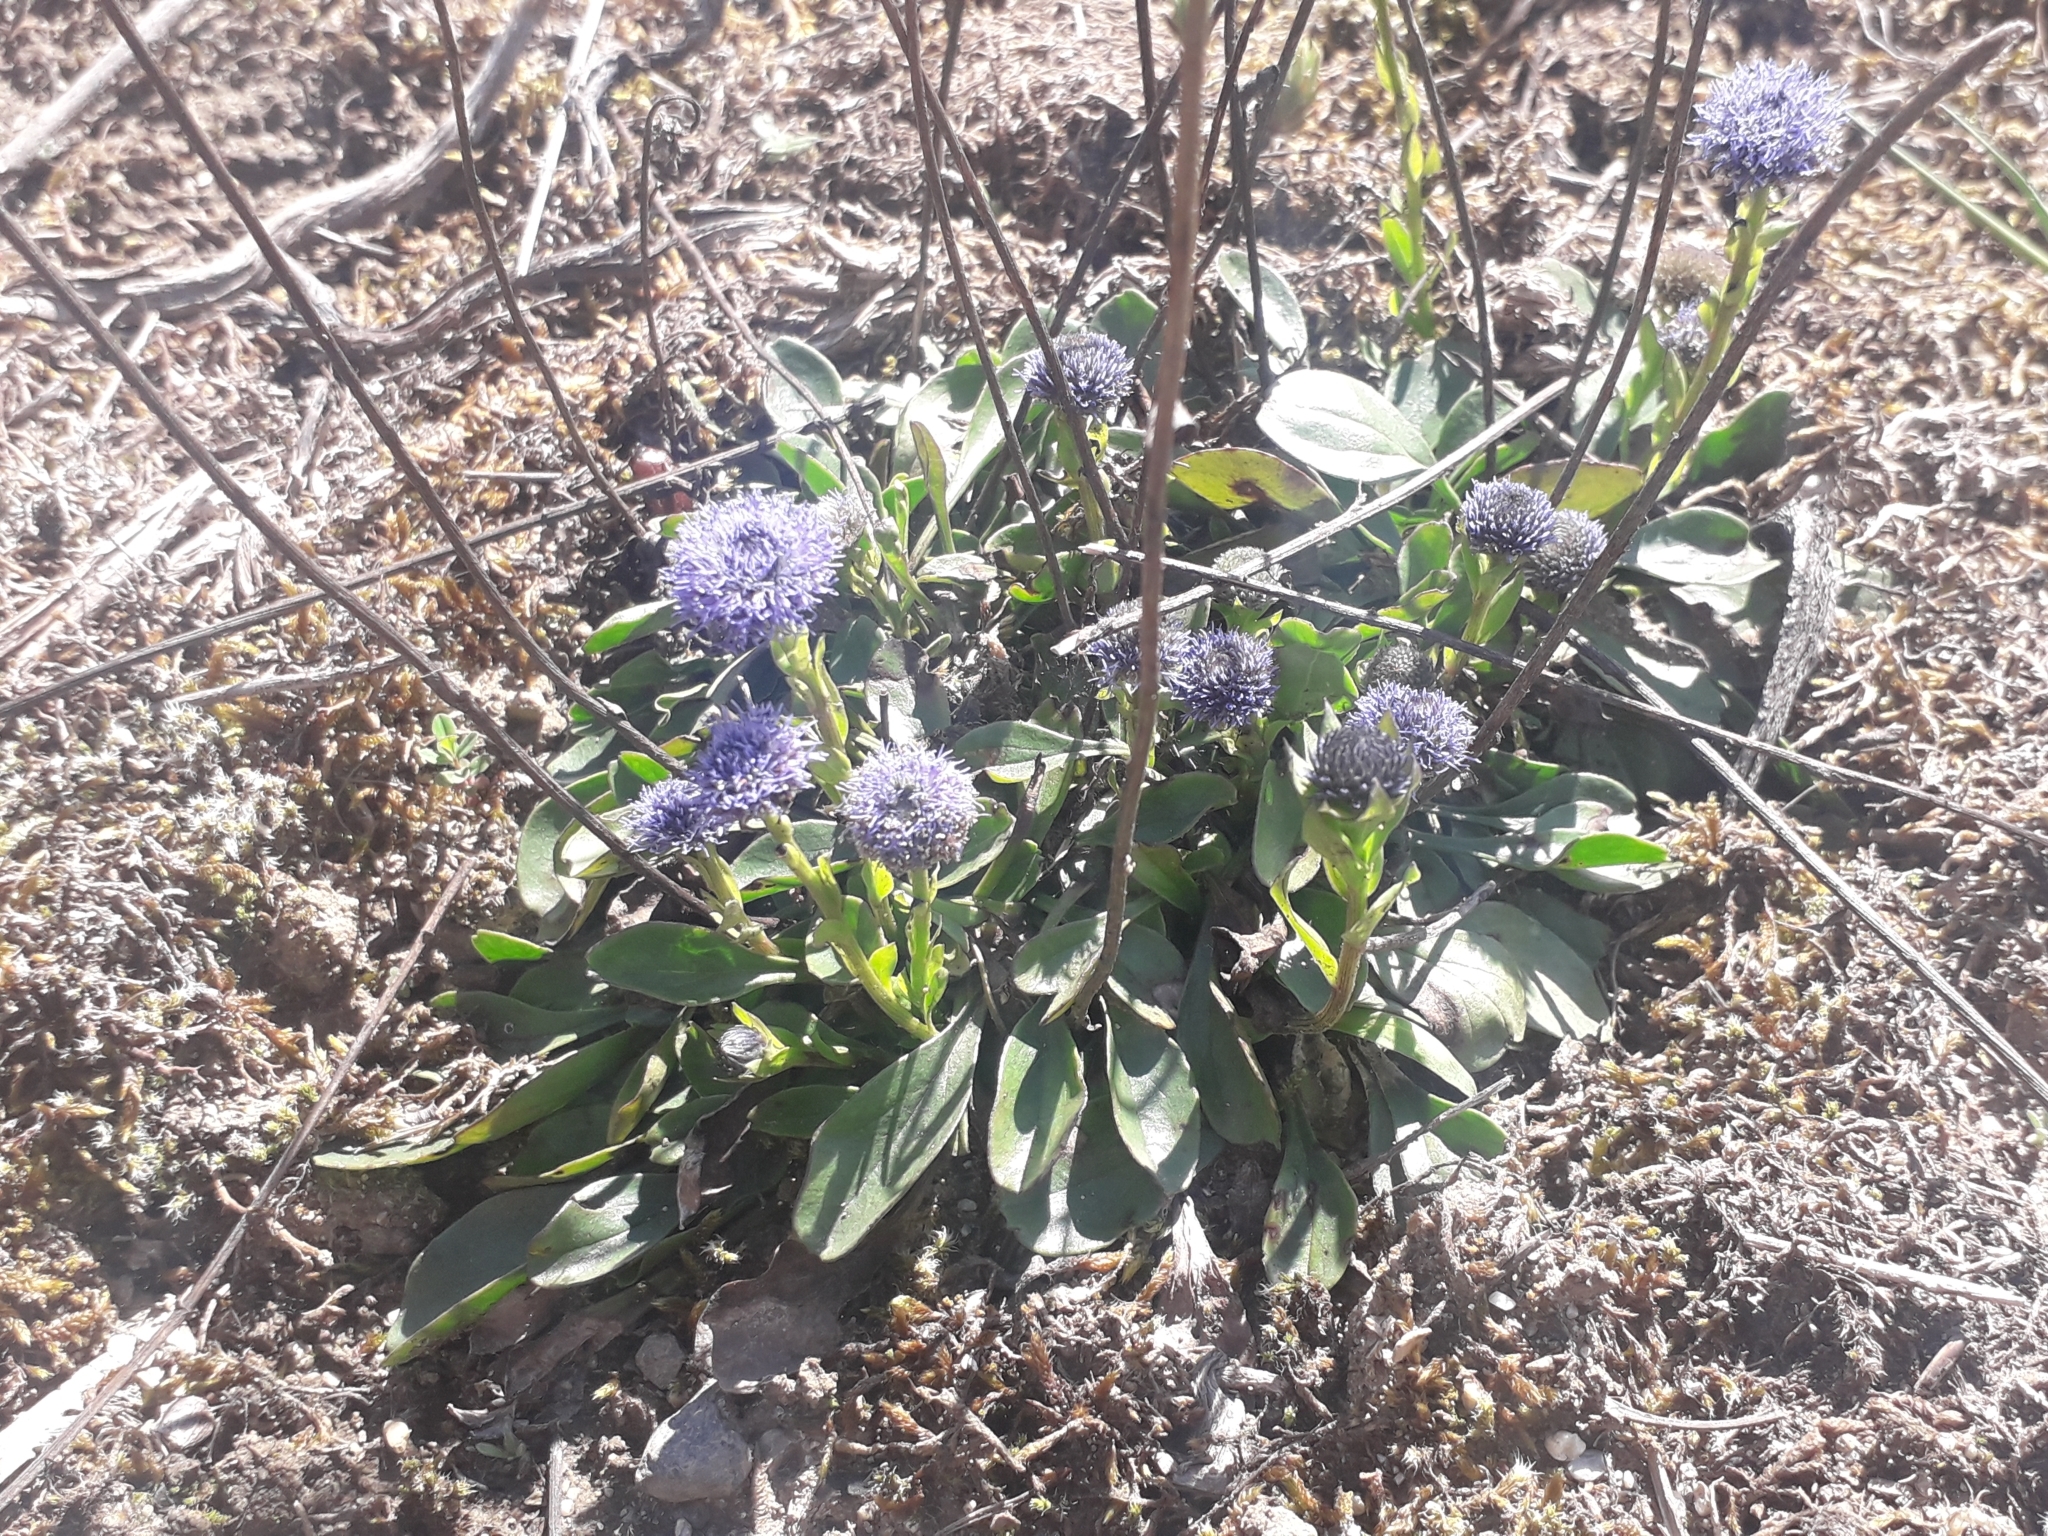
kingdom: Plantae
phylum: Tracheophyta
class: Magnoliopsida
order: Lamiales
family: Plantaginaceae
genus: Globularia
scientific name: Globularia bisnagarica
